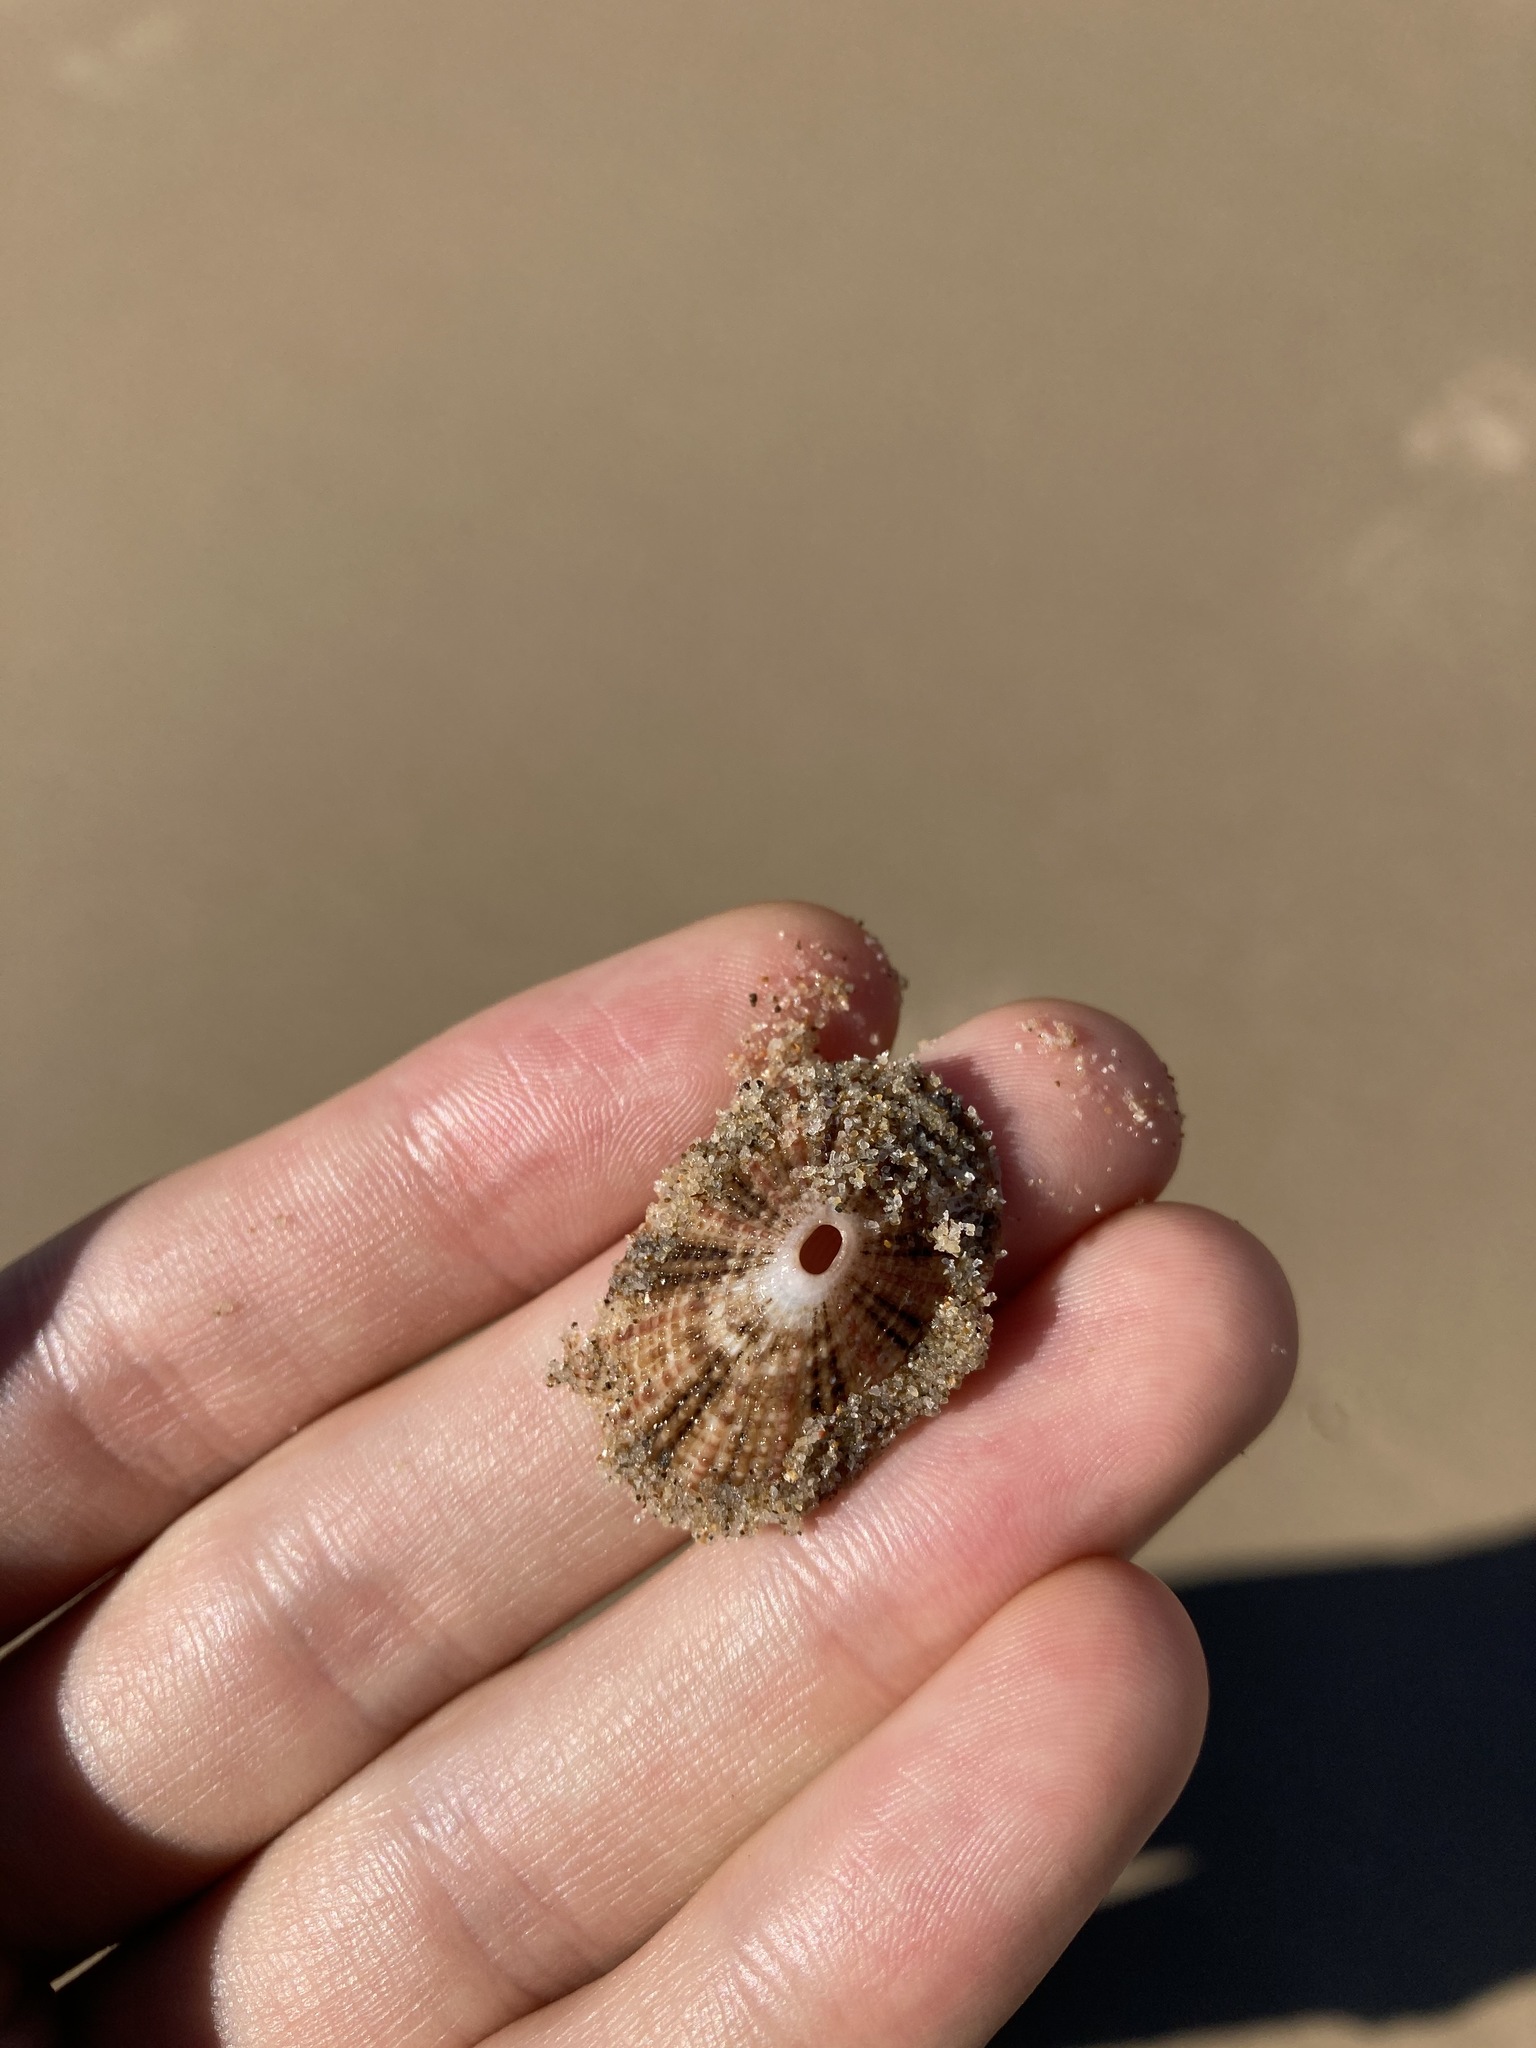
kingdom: Animalia
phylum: Mollusca
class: Gastropoda
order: Lepetellida
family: Fissurellidae
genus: Diodora
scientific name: Diodora lineata
